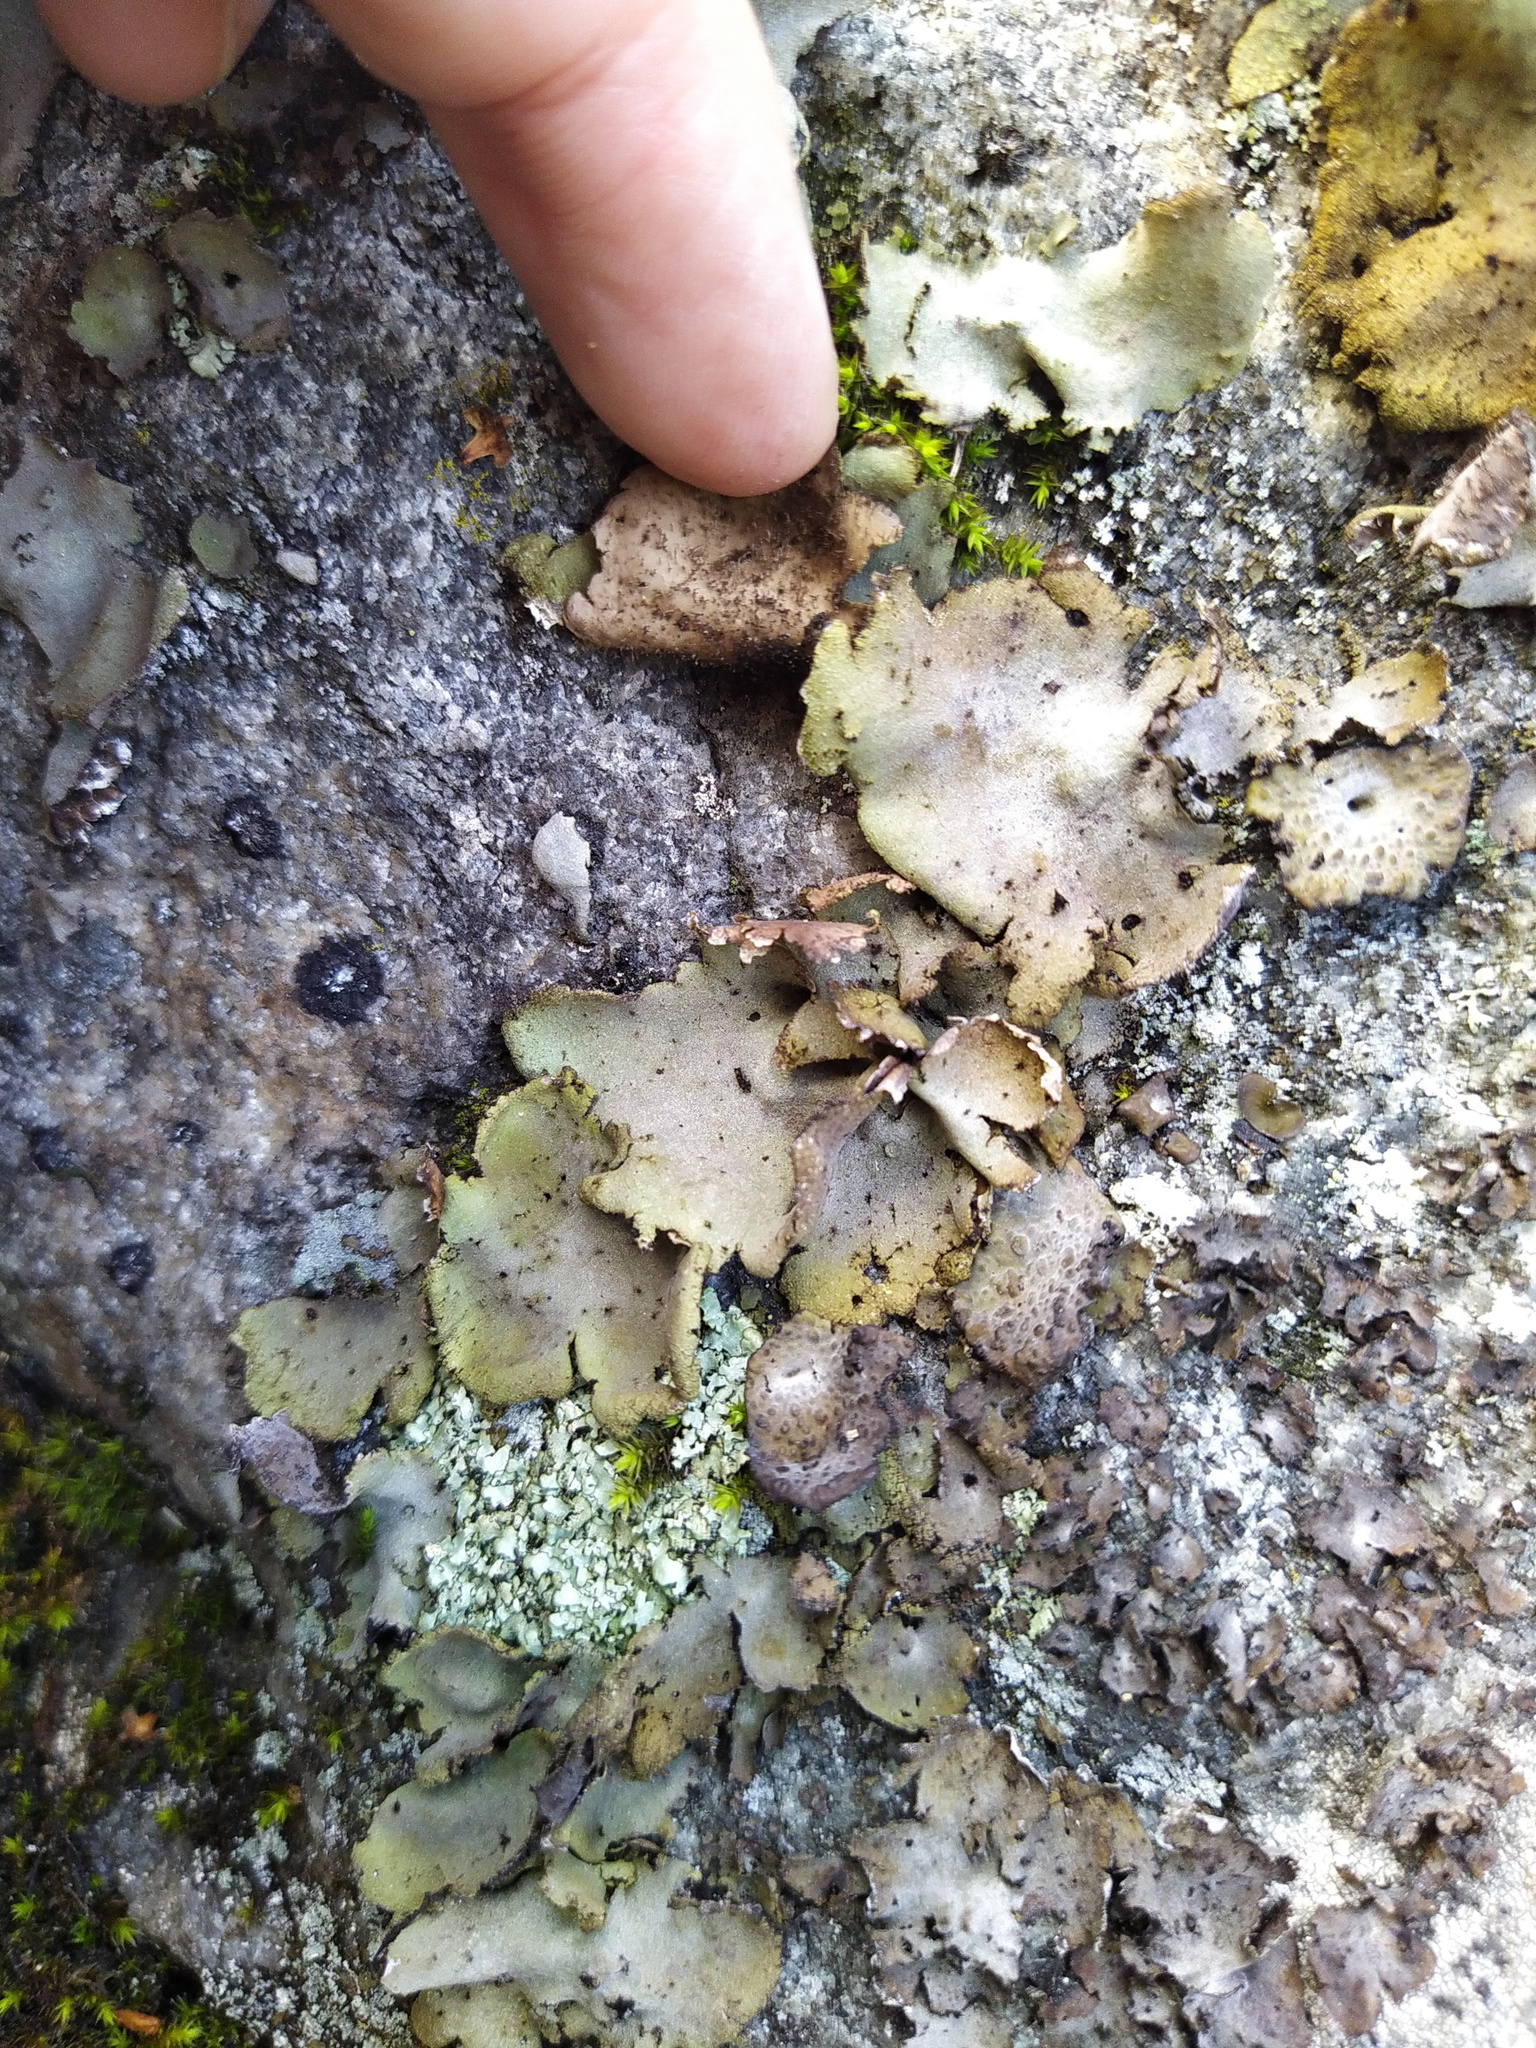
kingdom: Fungi
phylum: Ascomycota
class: Lecanoromycetes
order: Umbilicariales
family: Umbilicariaceae
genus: Umbilicaria
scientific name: Umbilicaria hirsuta
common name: Granulating rocktripe lichen
